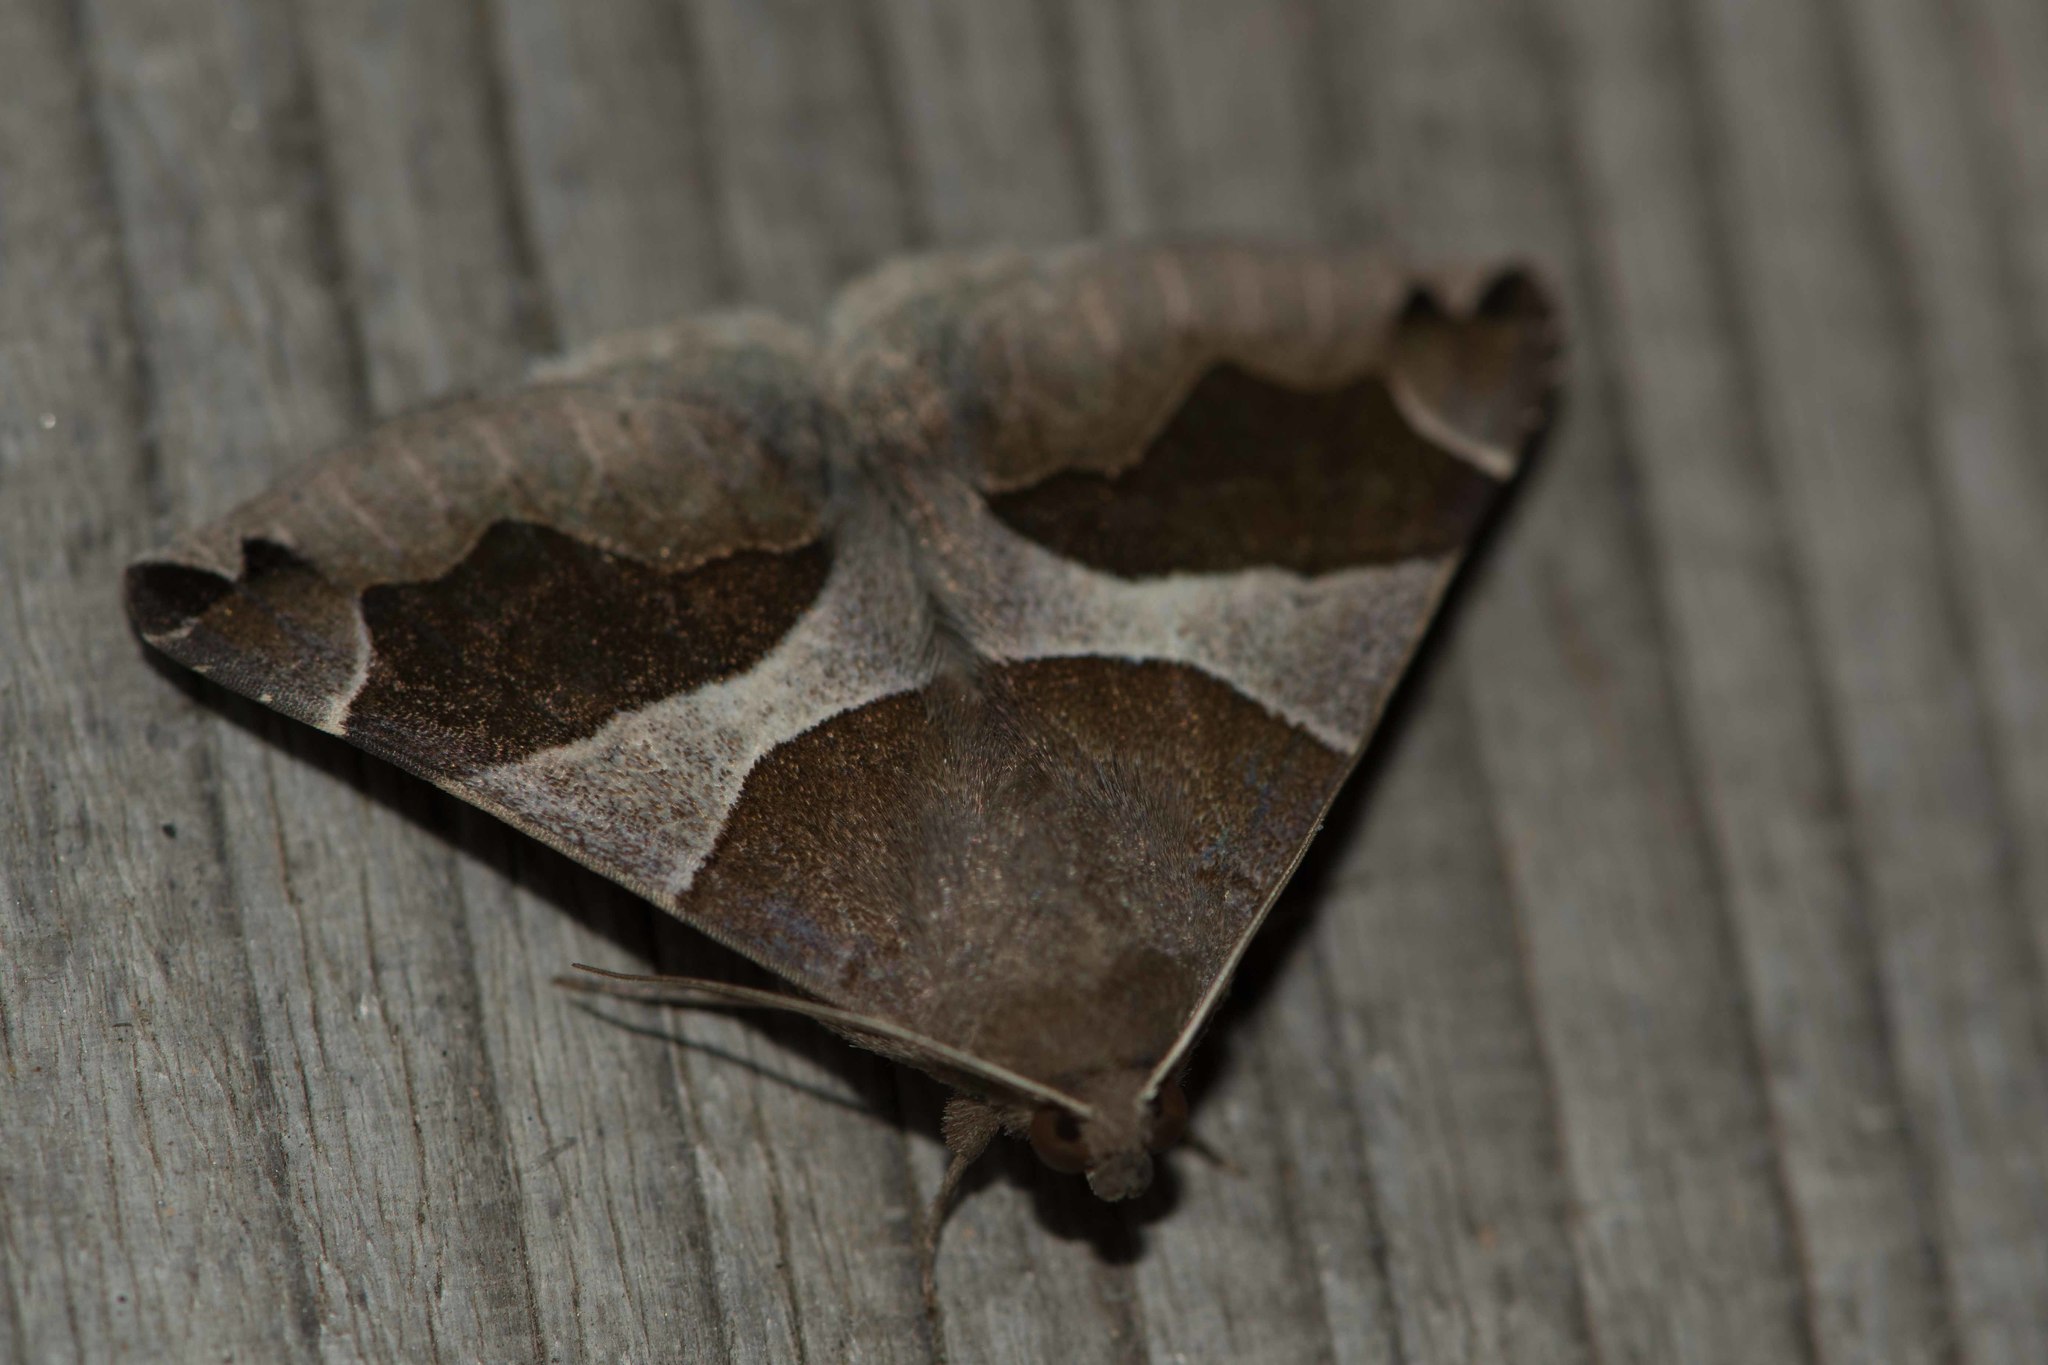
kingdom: Animalia
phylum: Arthropoda
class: Insecta
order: Lepidoptera
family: Erebidae
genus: Dysgonia
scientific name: Dysgonia algira
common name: Passenger
